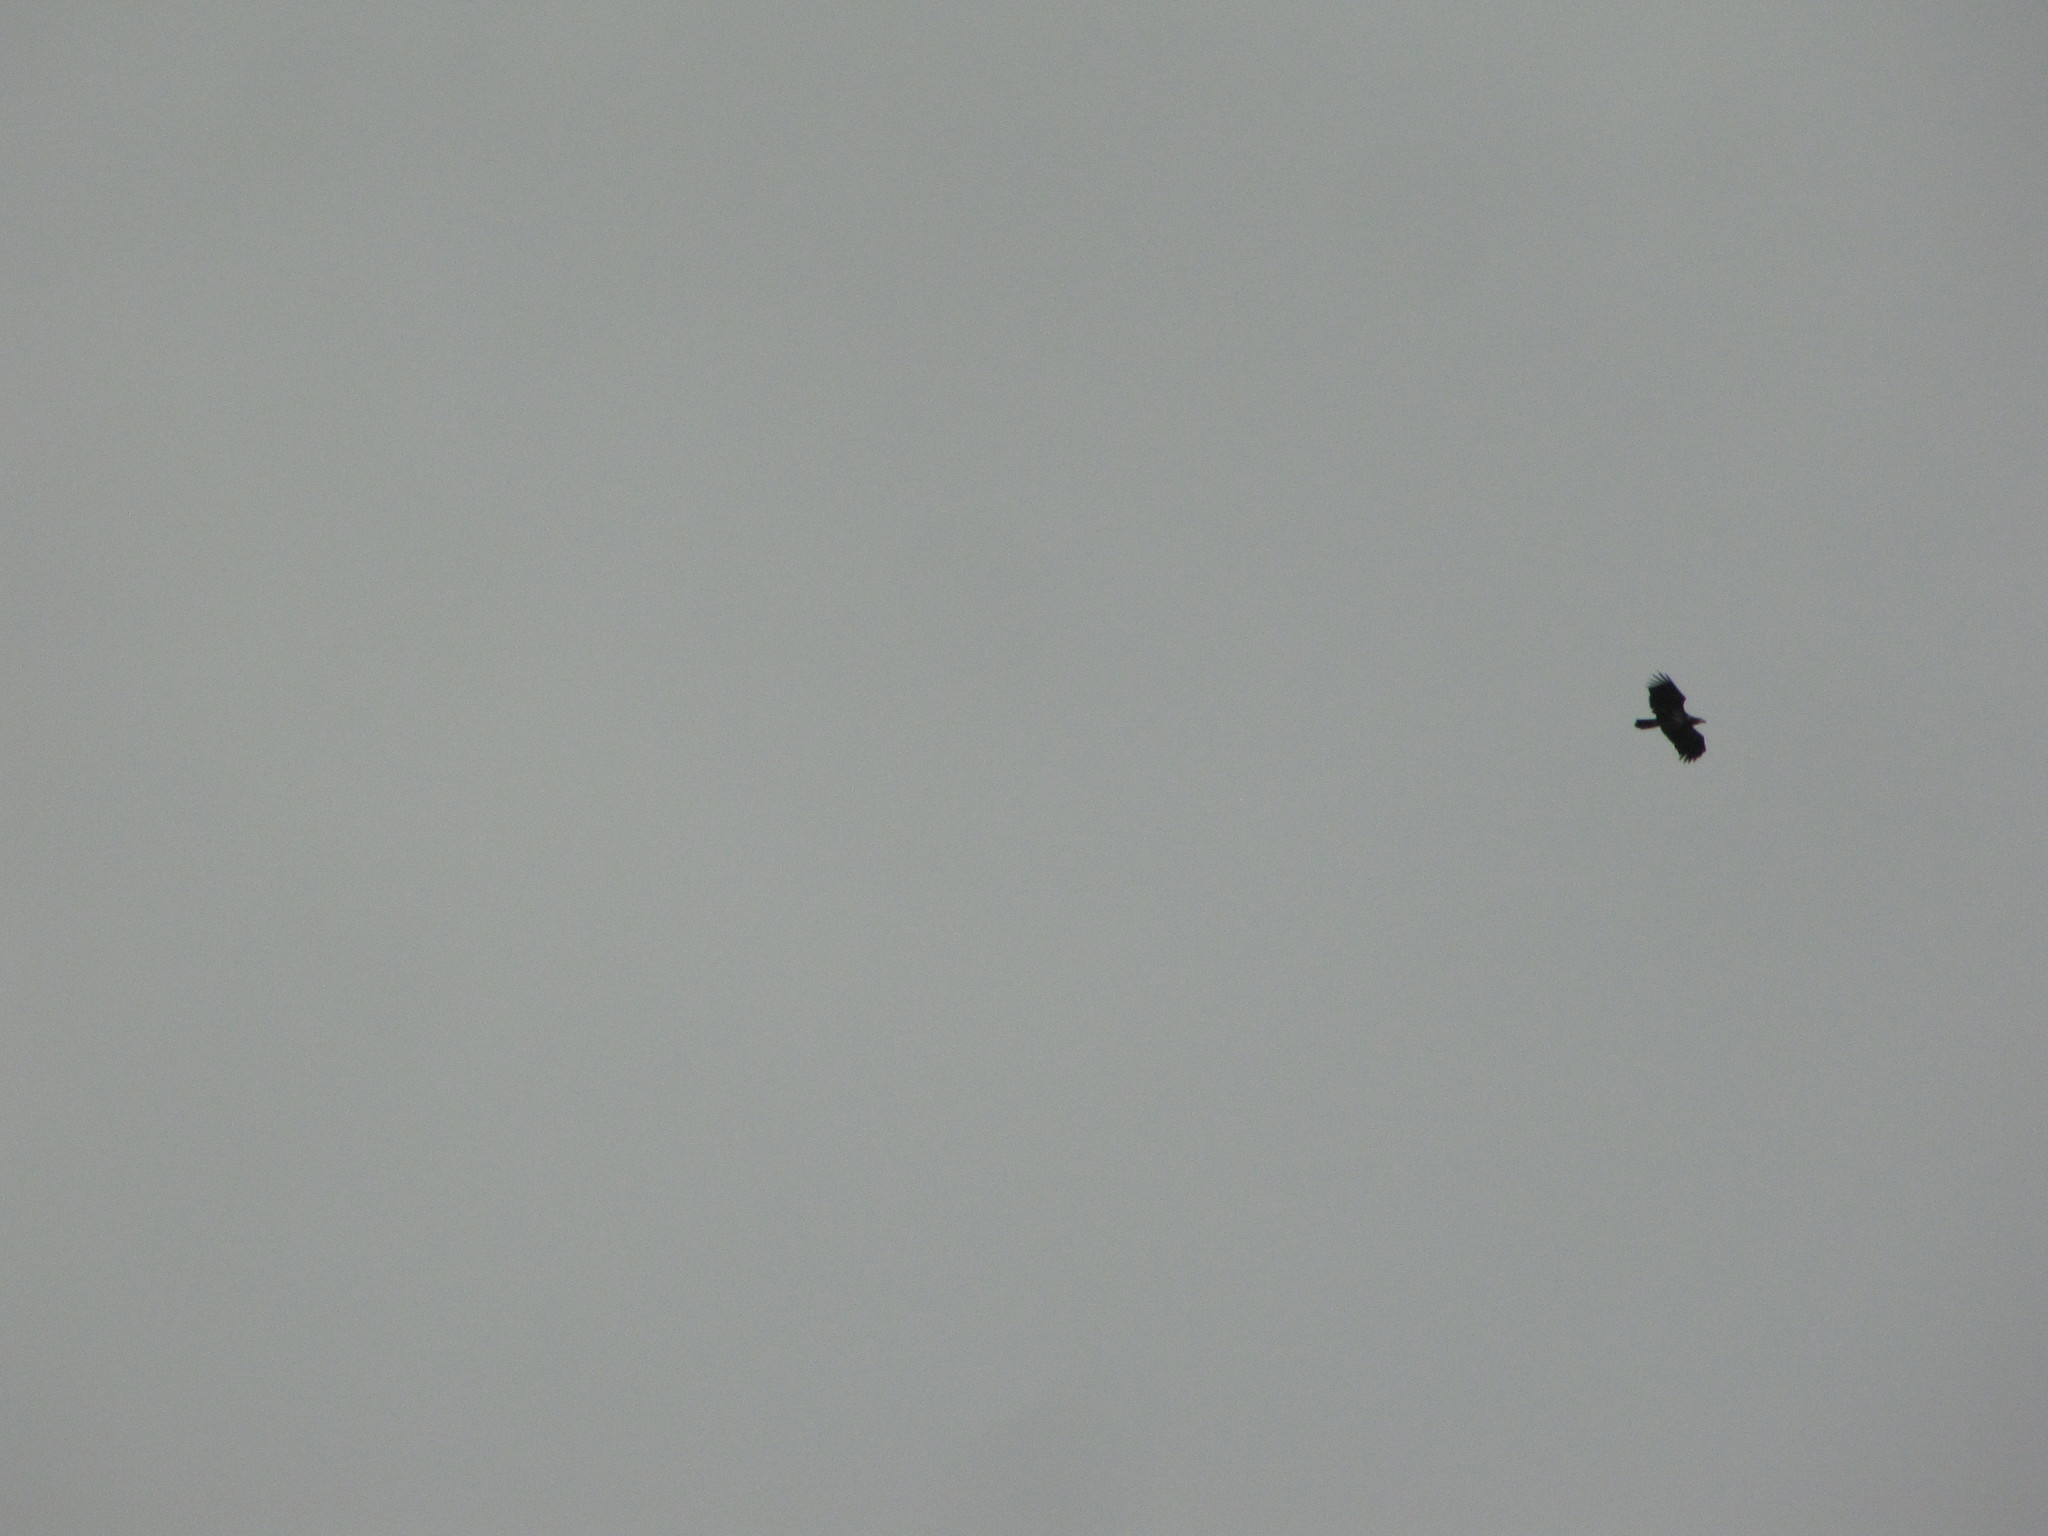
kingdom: Animalia
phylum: Chordata
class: Aves
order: Accipitriformes
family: Accipitridae
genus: Haliaeetus
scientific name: Haliaeetus leucocephalus
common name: Bald eagle
